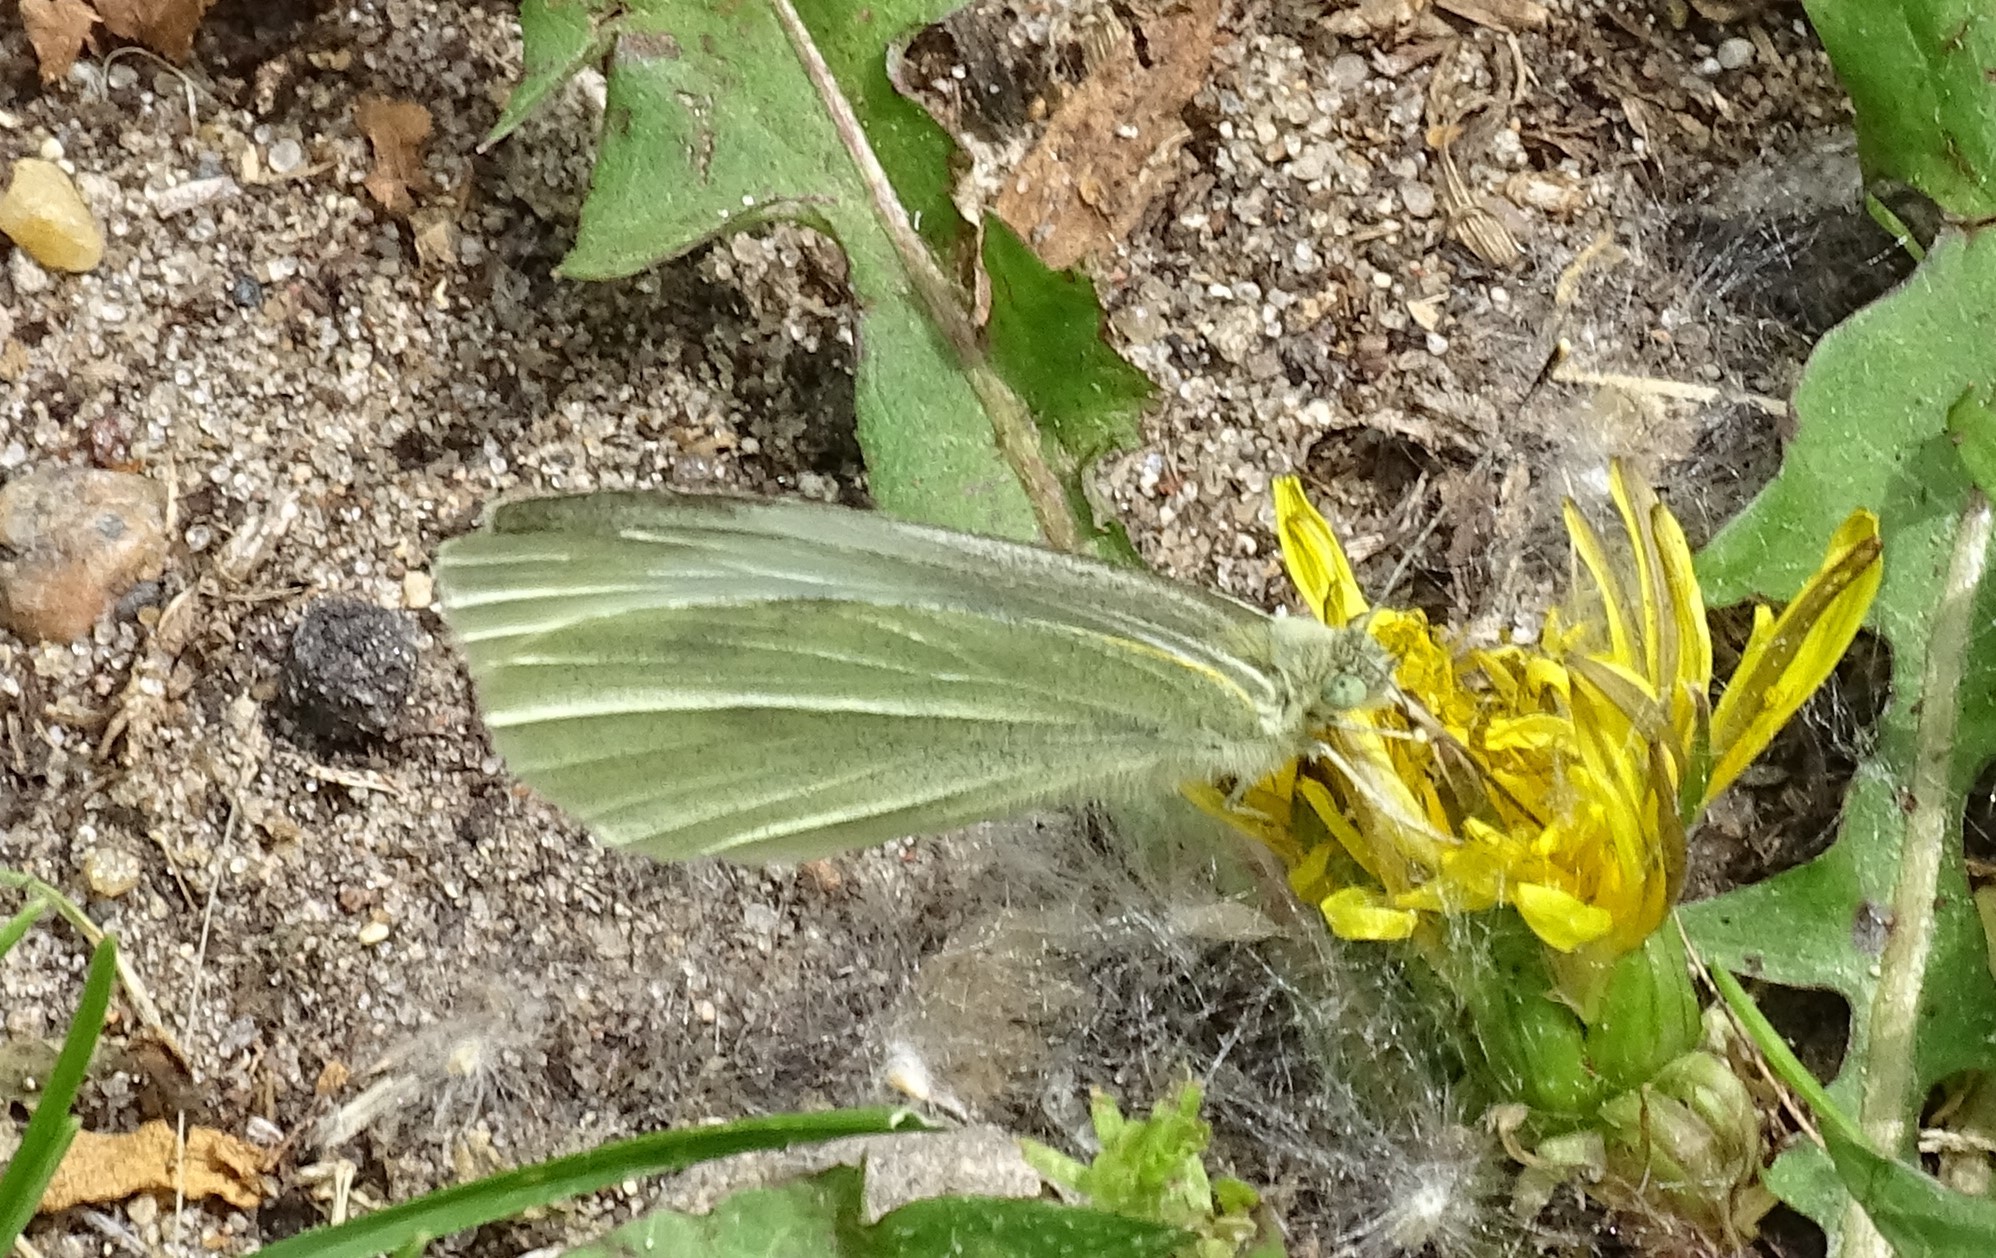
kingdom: Animalia
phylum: Arthropoda
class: Insecta
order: Lepidoptera
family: Pieridae
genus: Pieris
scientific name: Pieris rapae
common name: Small white
